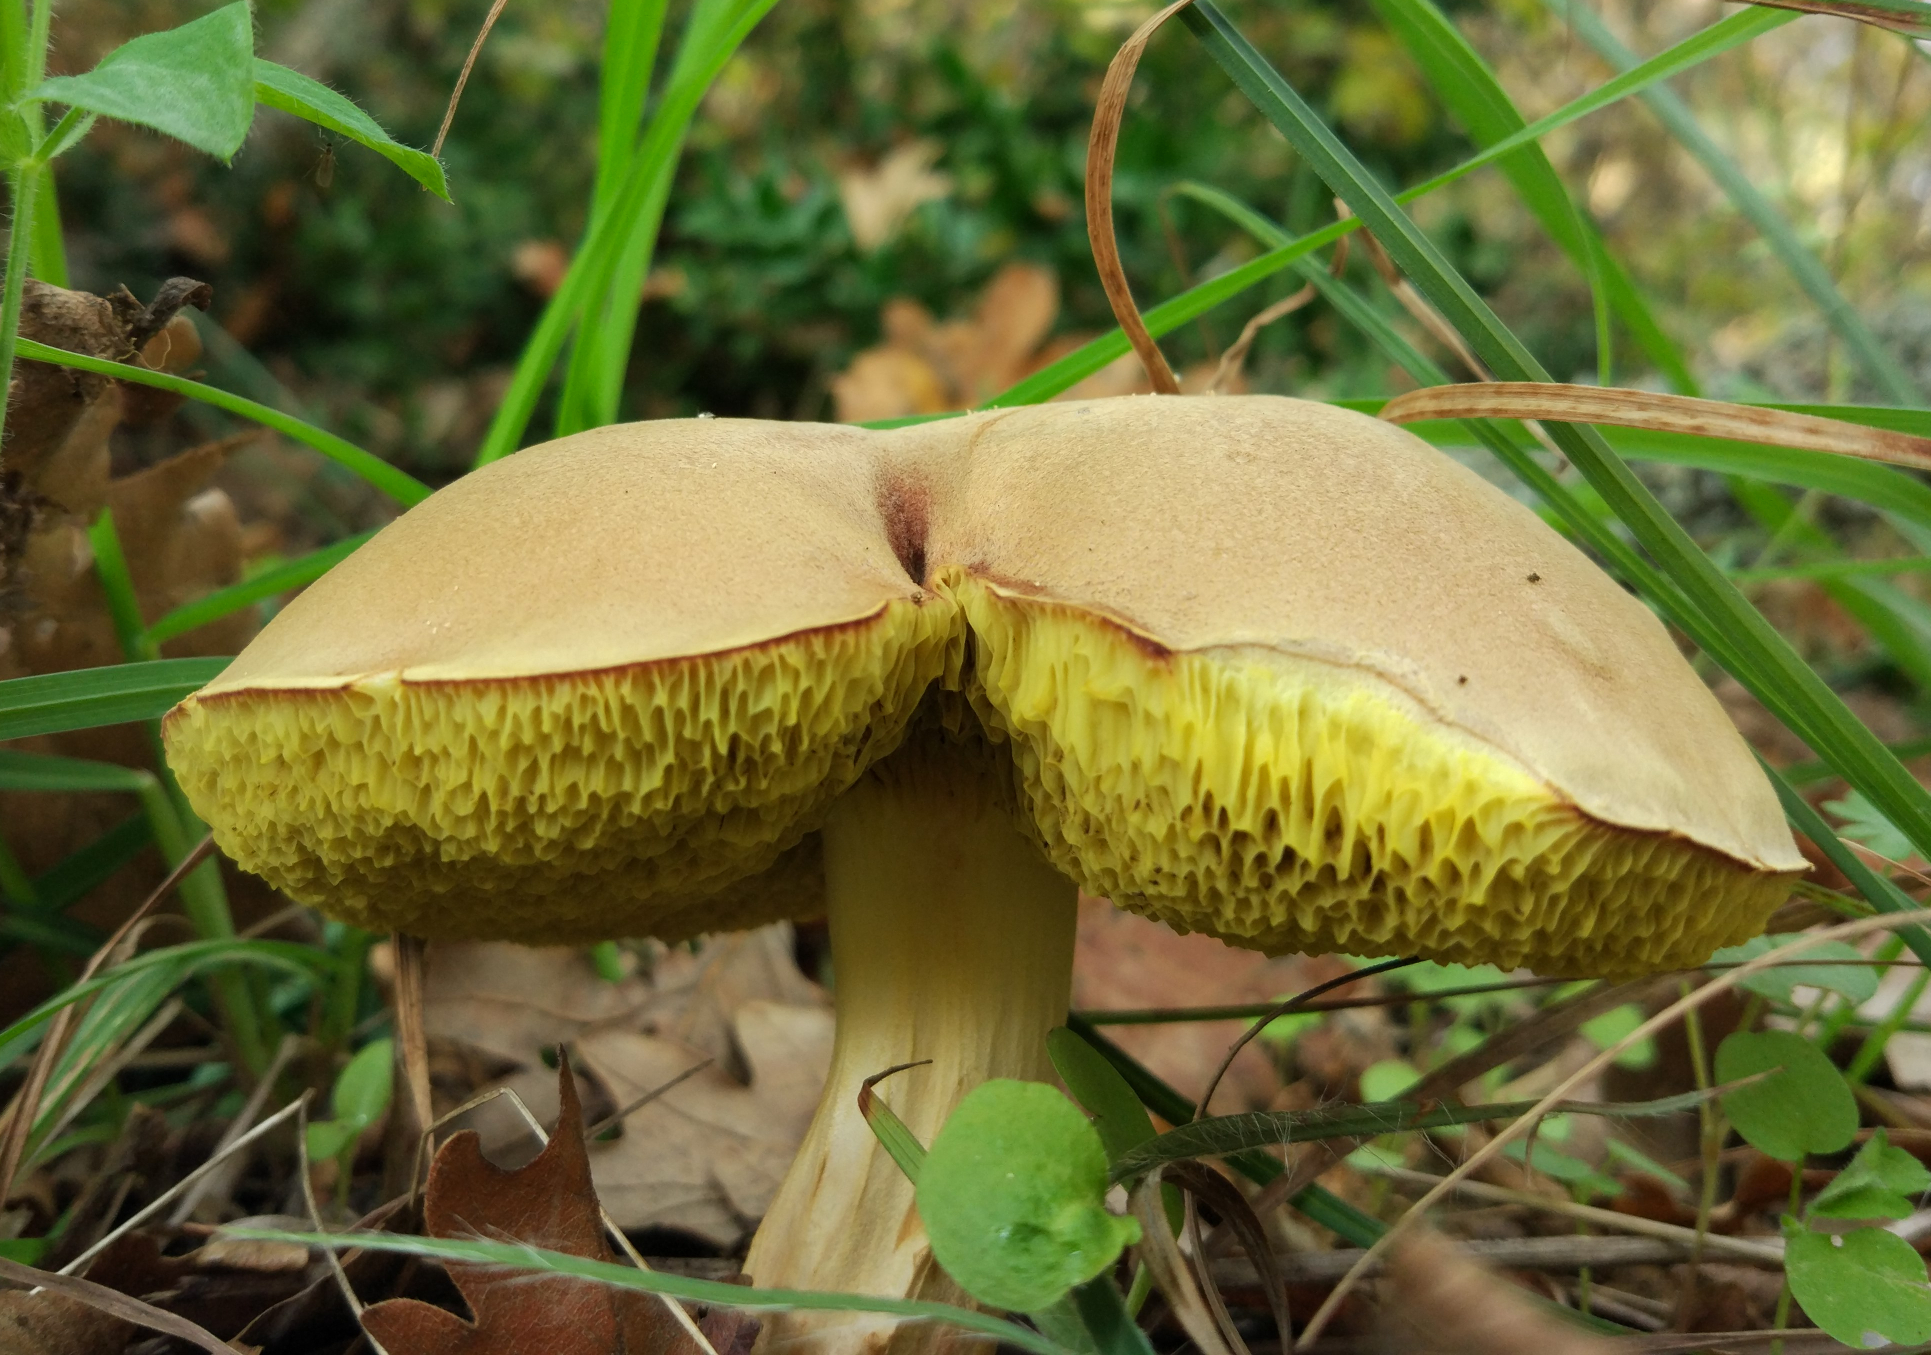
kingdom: Fungi
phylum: Basidiomycota
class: Agaricomycetes
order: Boletales
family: Boletaceae
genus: Xerocomus
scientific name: Xerocomus subtomentosus
